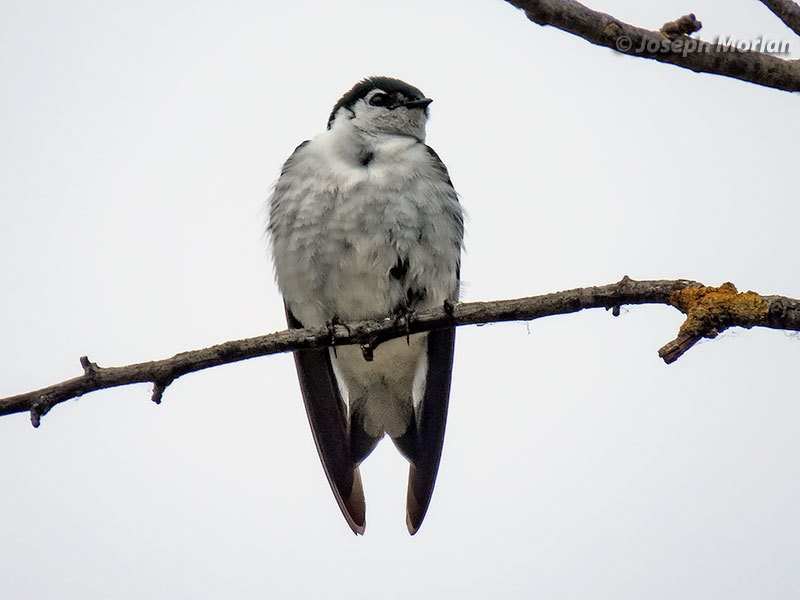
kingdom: Animalia
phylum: Chordata
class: Aves
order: Passeriformes
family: Hirundinidae
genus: Tachycineta
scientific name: Tachycineta thalassina
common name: Violet-green swallow
